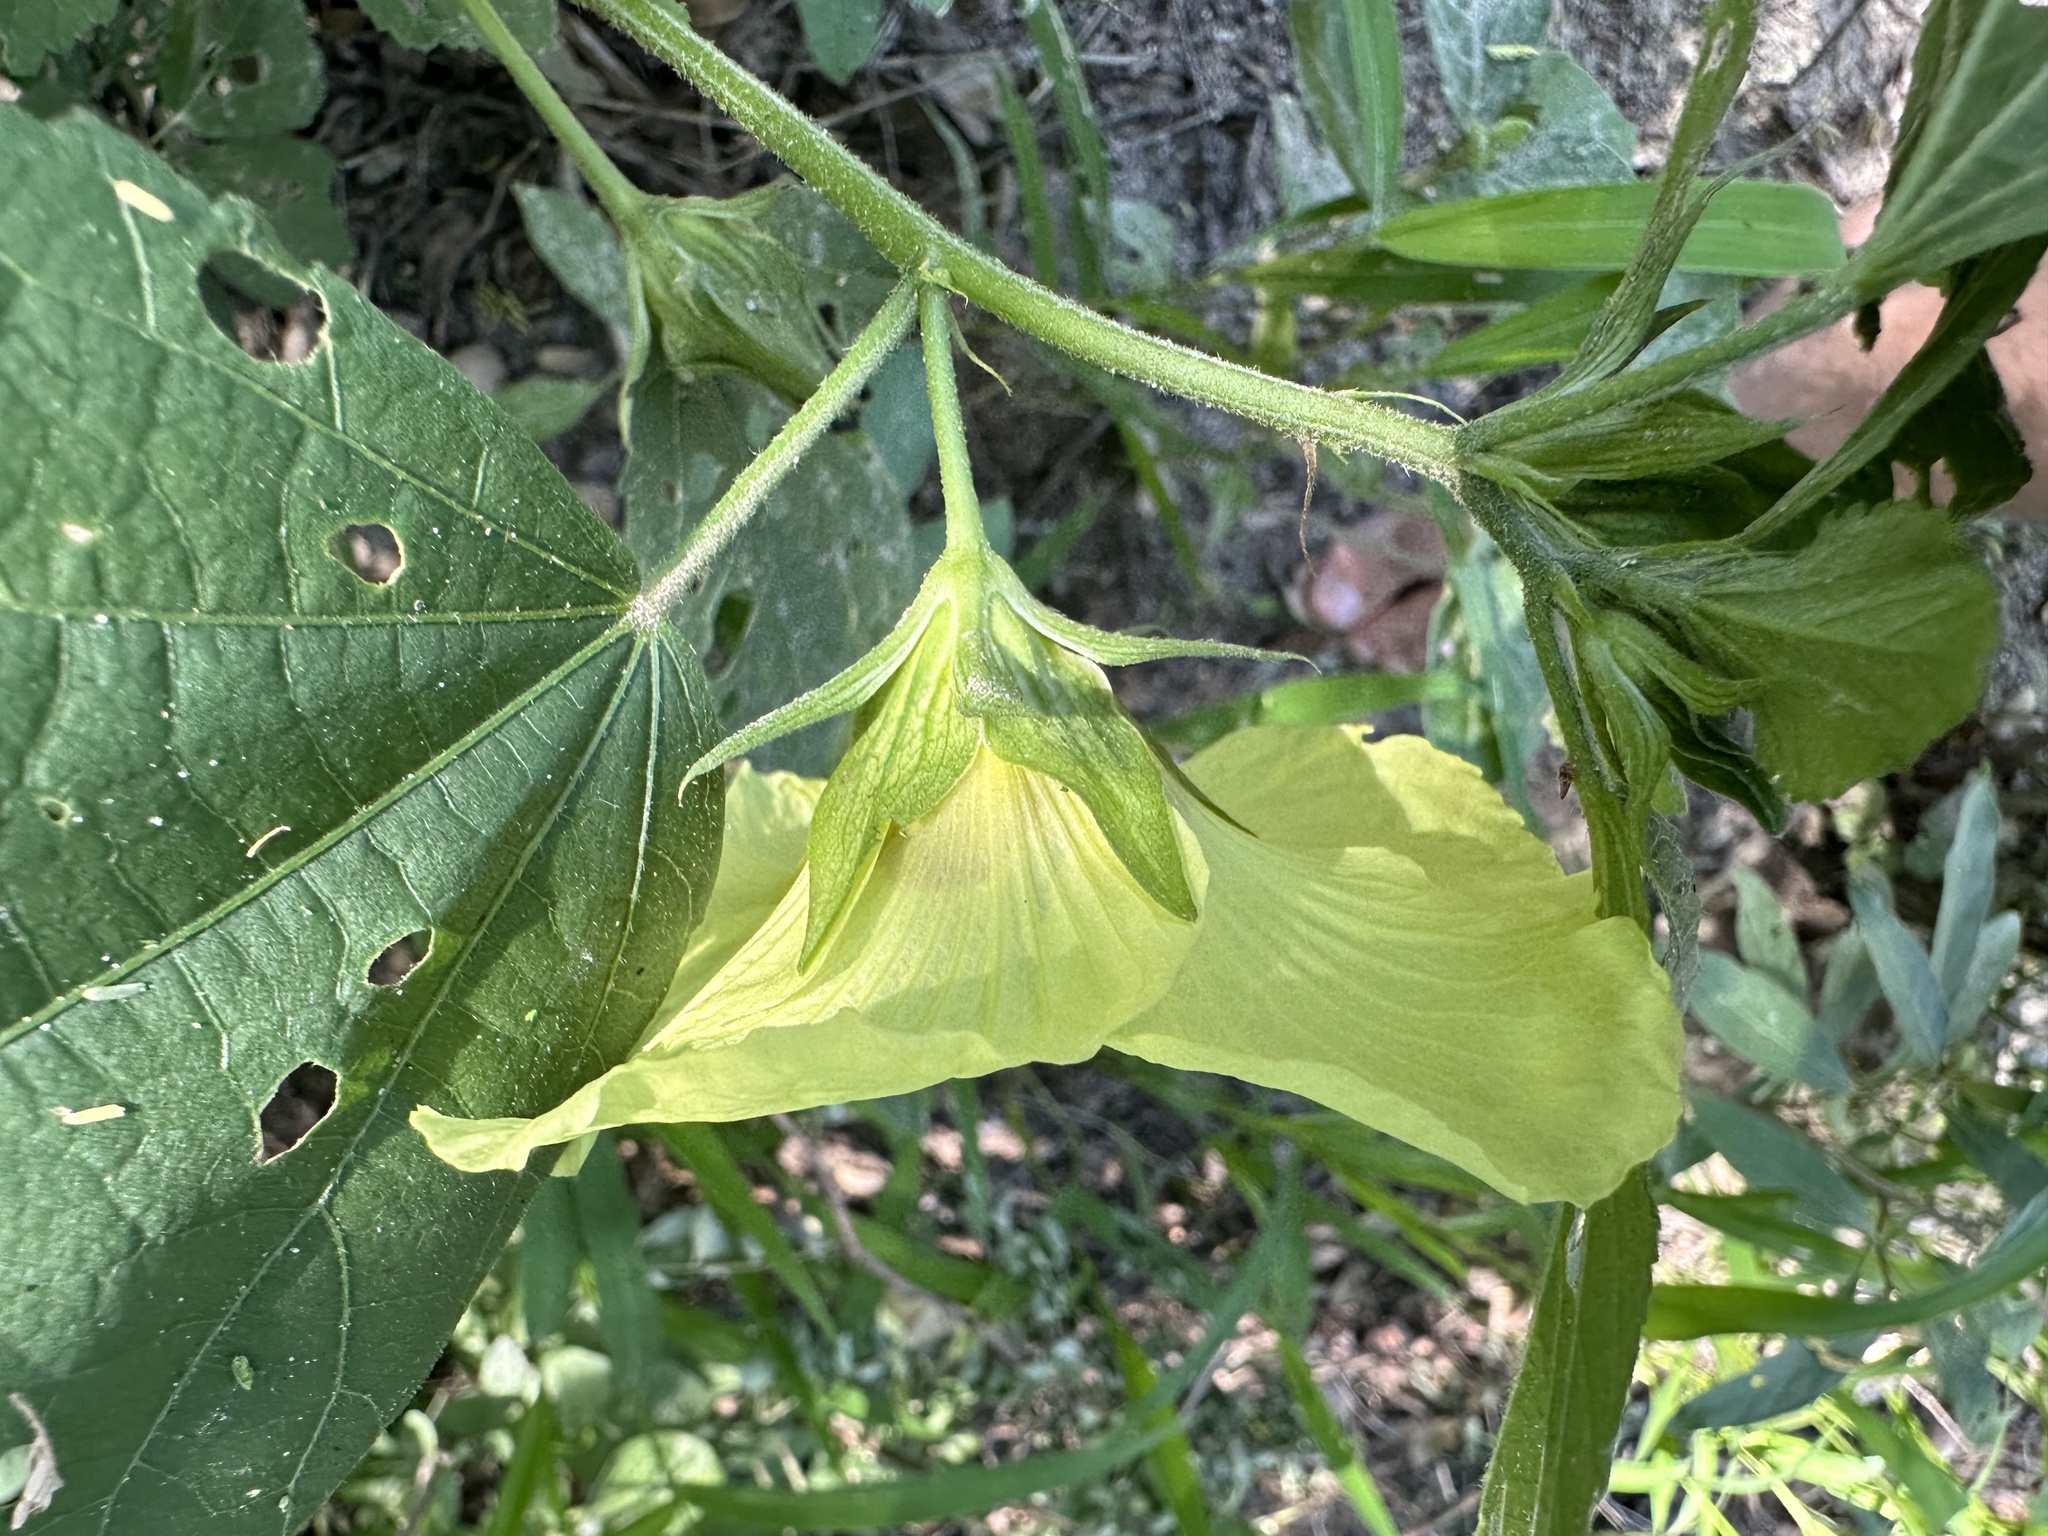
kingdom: Plantae
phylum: Tracheophyta
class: Magnoliopsida
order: Malvales
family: Malvaceae
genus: Hibiscus
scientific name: Hibiscus ovalifolius
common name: Rosemallow
